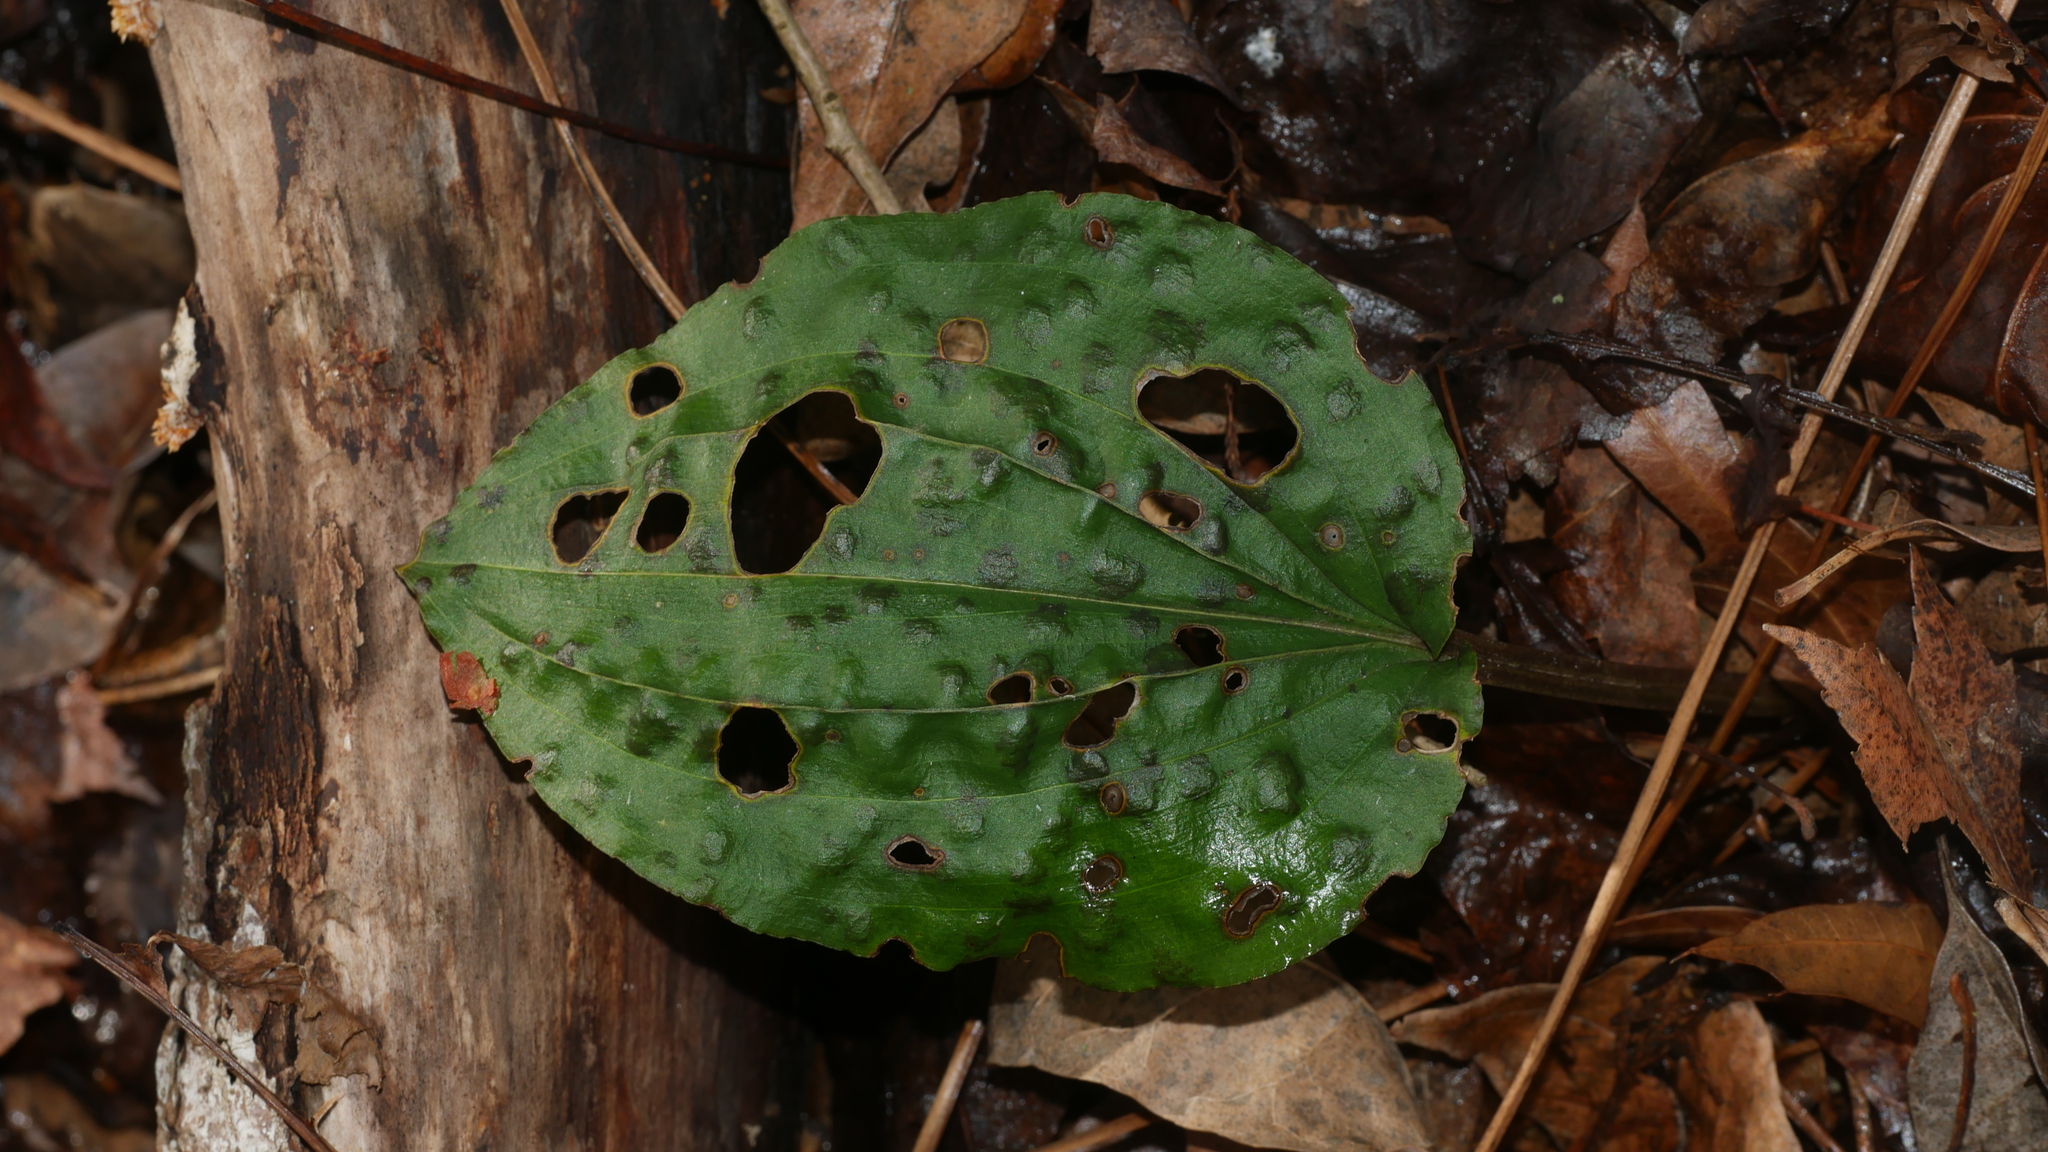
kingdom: Plantae
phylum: Tracheophyta
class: Liliopsida
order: Asparagales
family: Orchidaceae
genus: Tipularia
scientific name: Tipularia discolor
